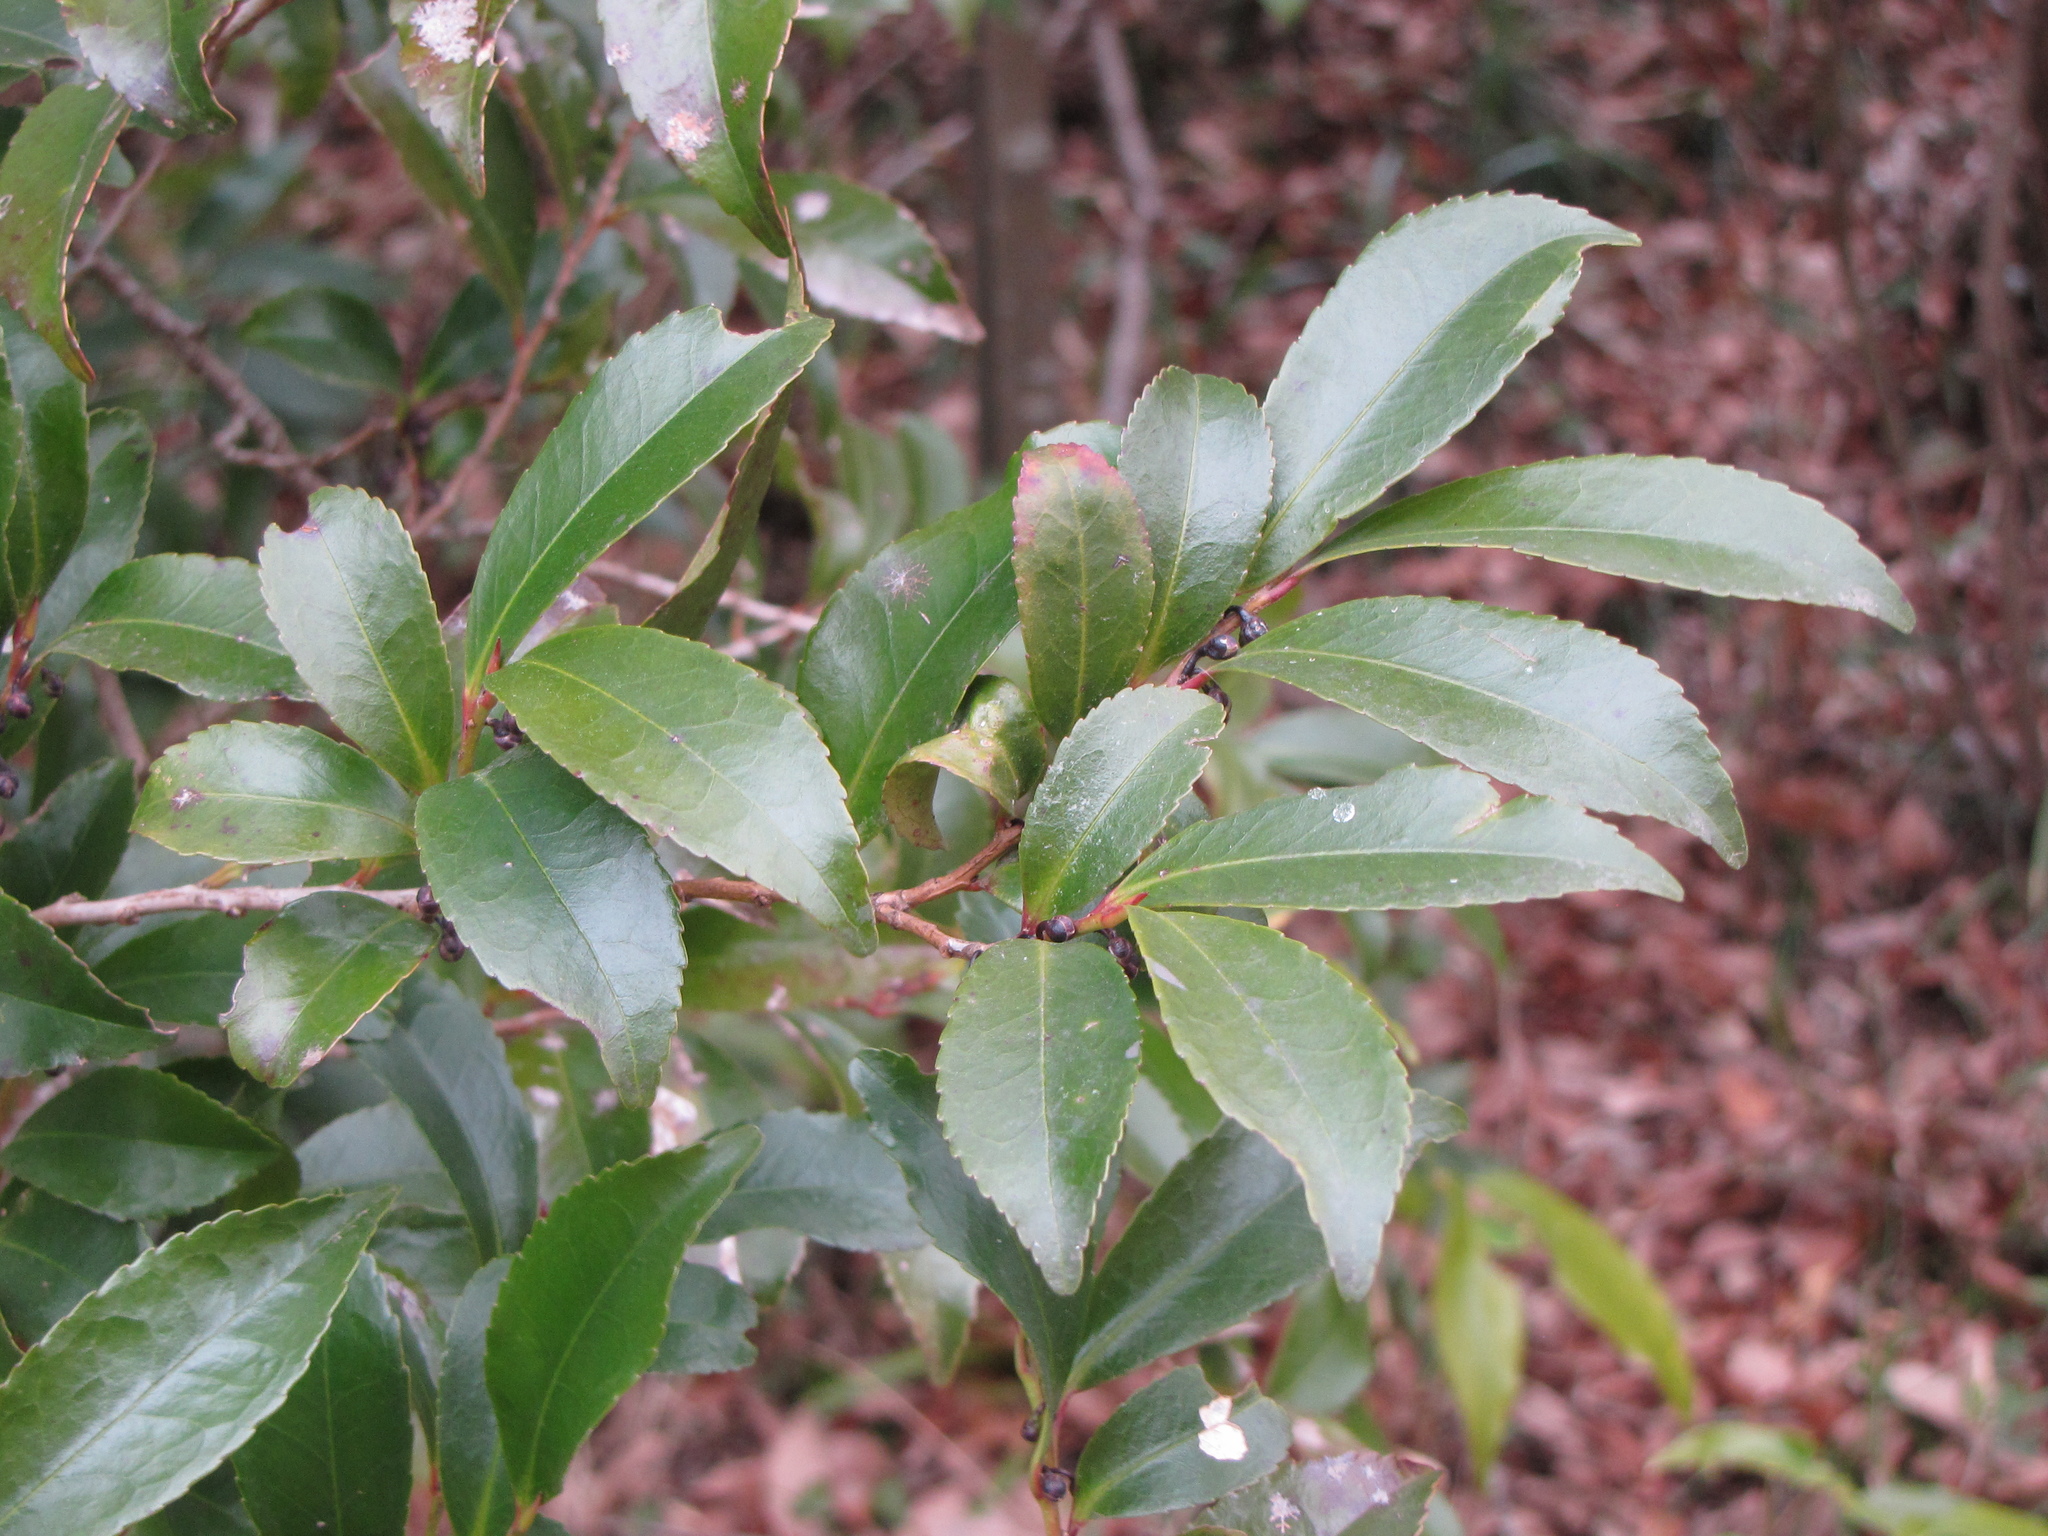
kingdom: Plantae
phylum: Tracheophyta
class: Magnoliopsida
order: Ericales
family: Pentaphylacaceae
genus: Eurya
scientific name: Eurya japonica
